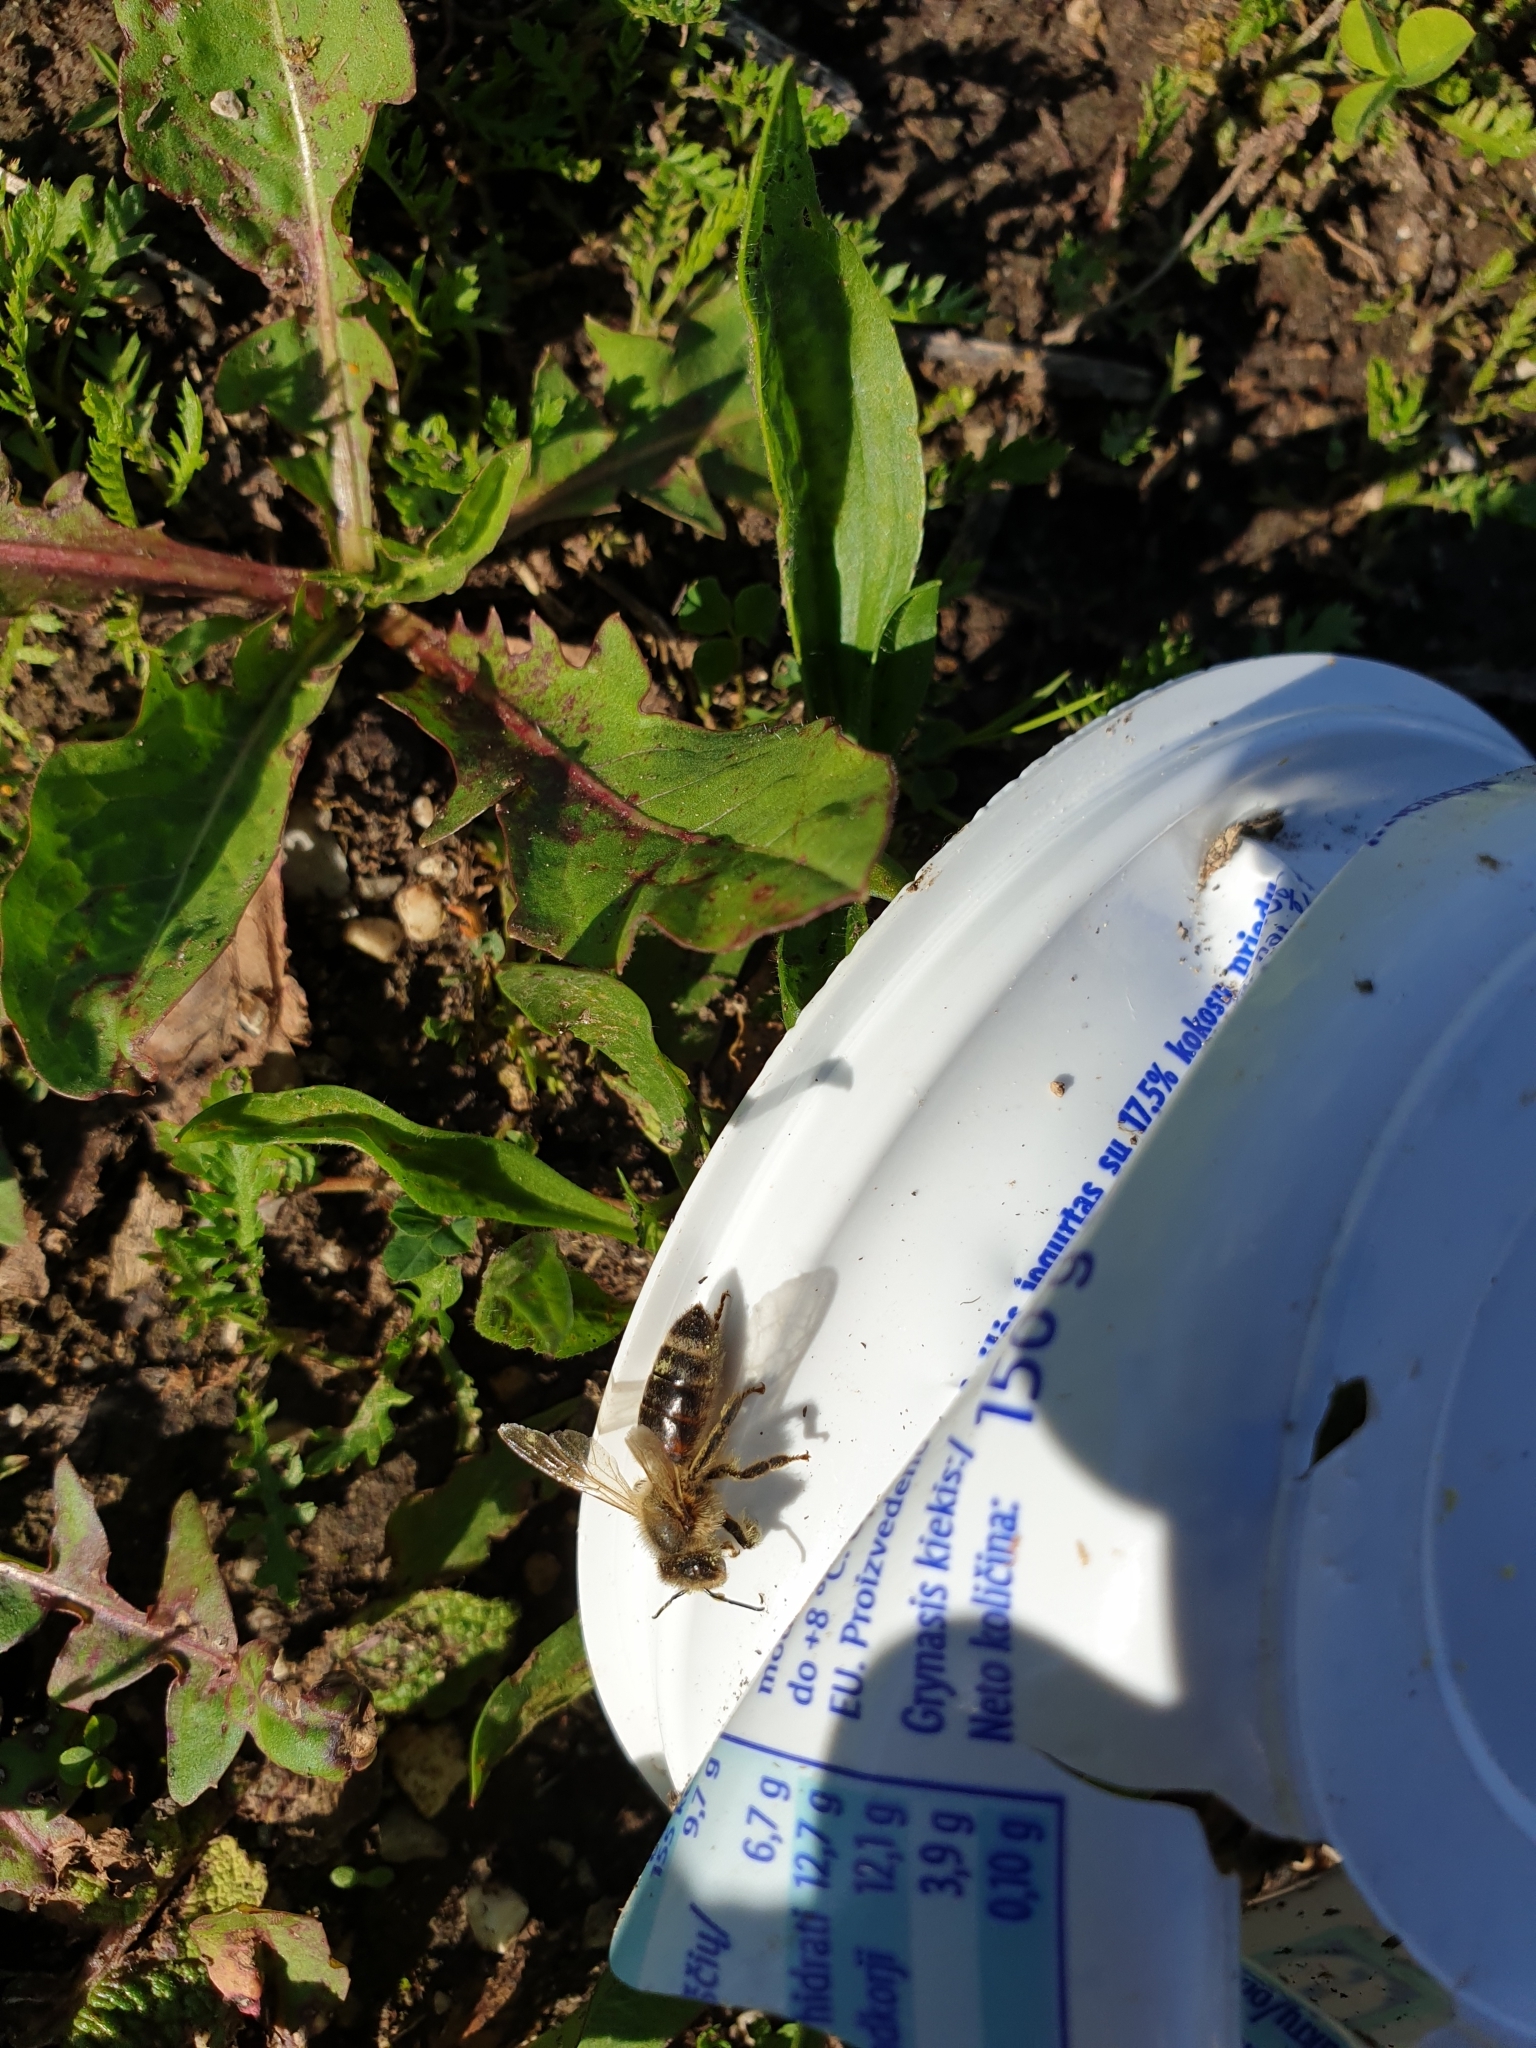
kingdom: Animalia
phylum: Arthropoda
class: Insecta
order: Hymenoptera
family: Apidae
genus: Apis
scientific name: Apis mellifera
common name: Honey bee
